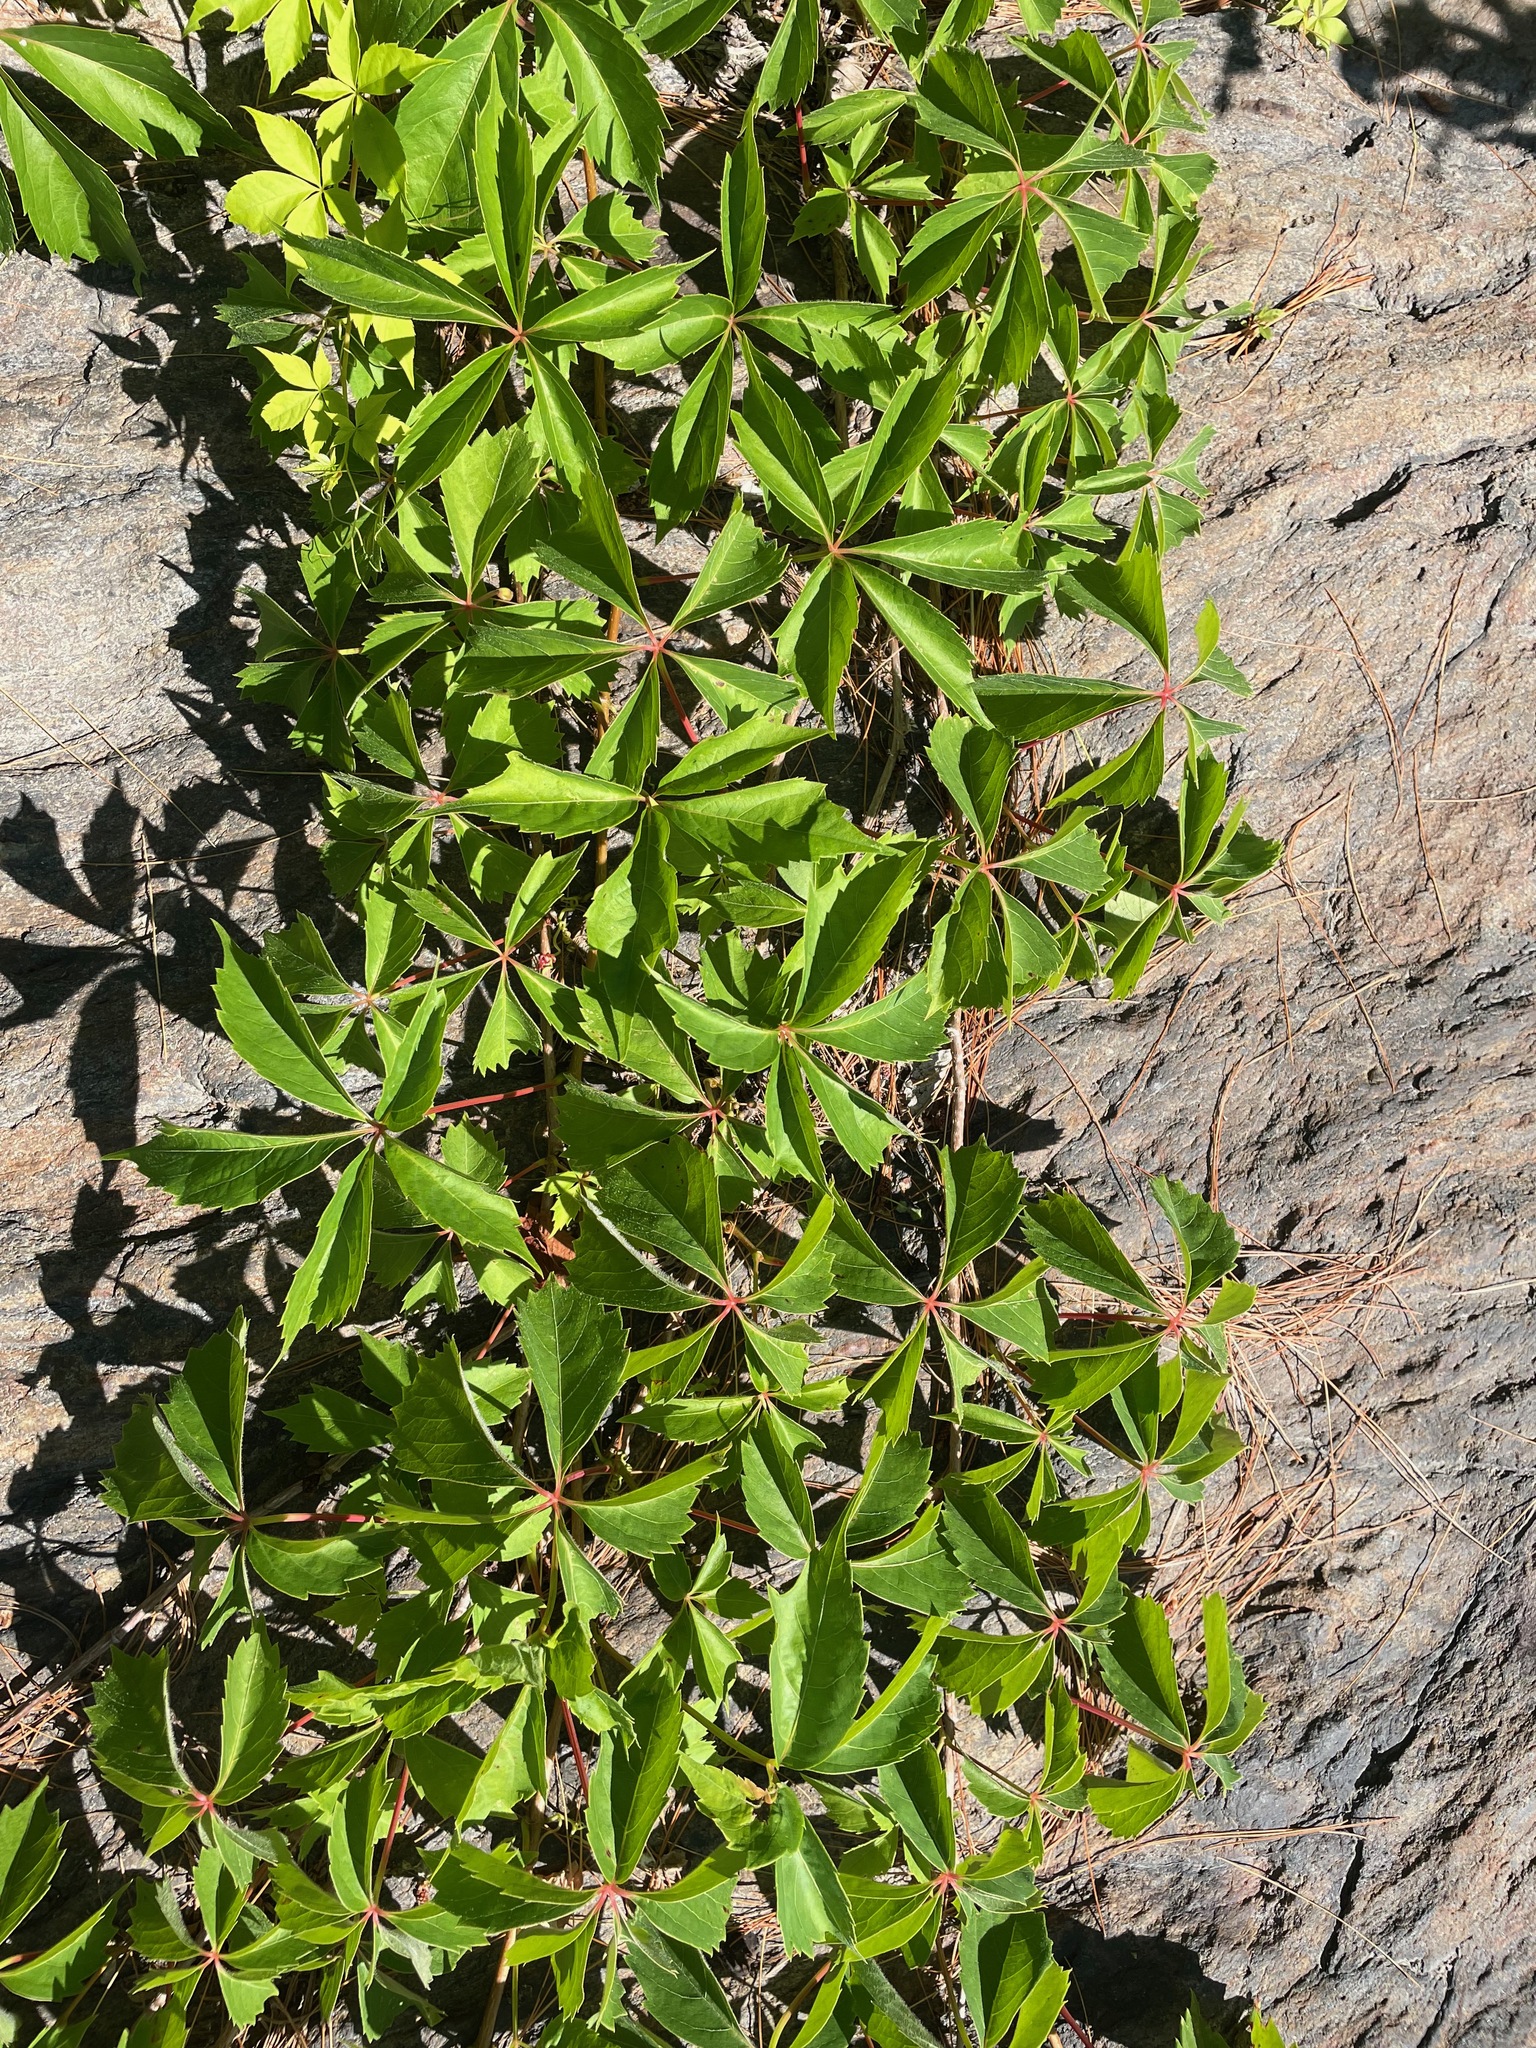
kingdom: Plantae
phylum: Tracheophyta
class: Magnoliopsida
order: Vitales
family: Vitaceae
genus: Parthenocissus
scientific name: Parthenocissus quinquefolia
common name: Virginia-creeper
